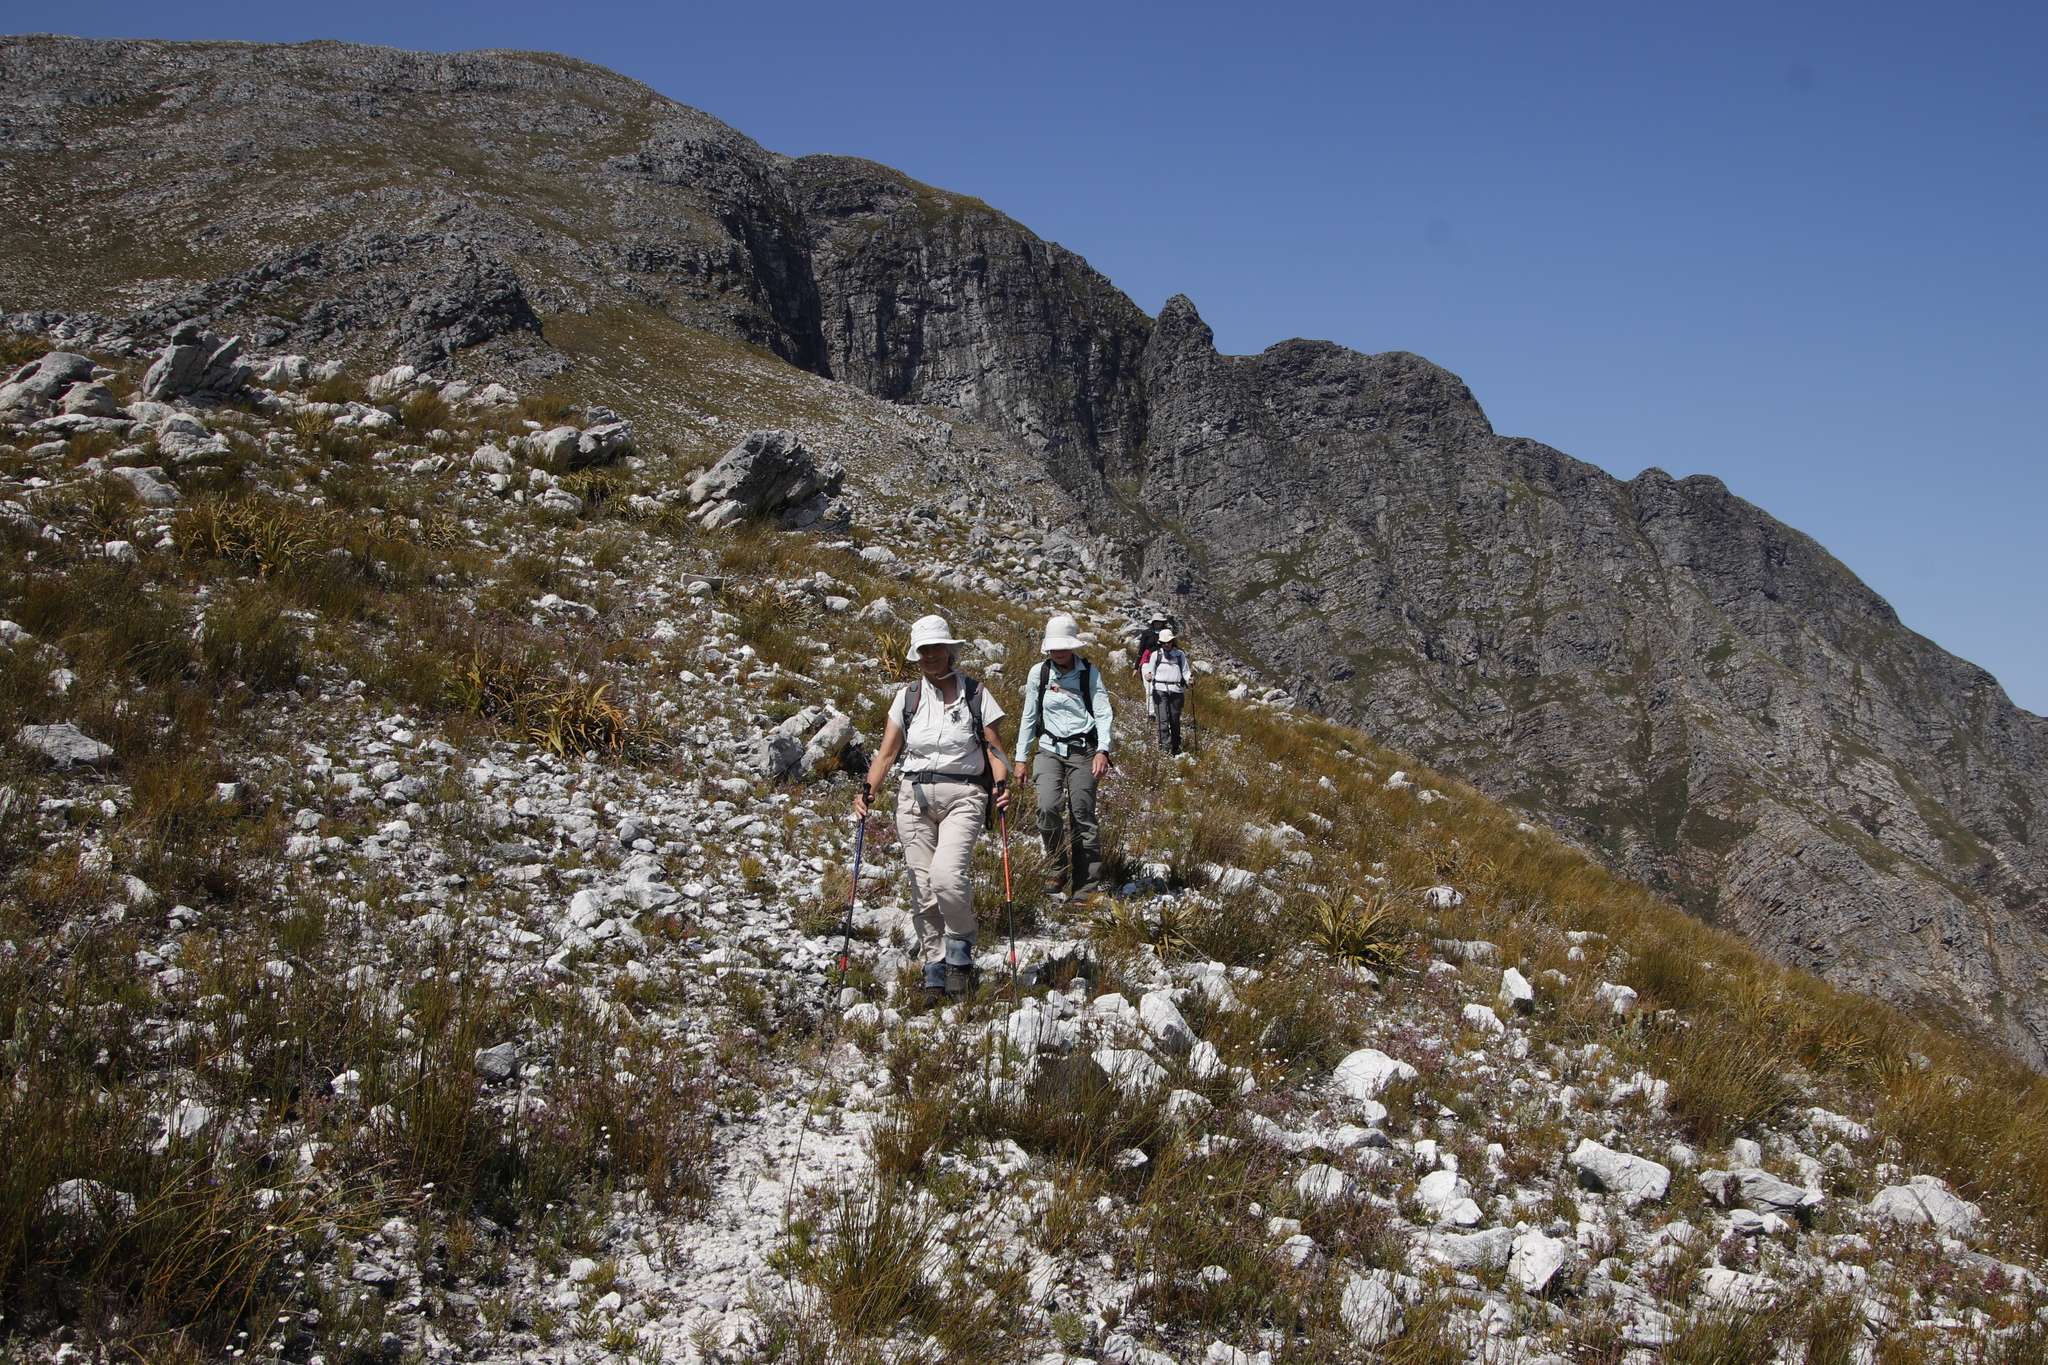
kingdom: Plantae
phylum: Tracheophyta
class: Liliopsida
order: Poales
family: Cyperaceae
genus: Tetraria
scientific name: Tetraria thermalis
